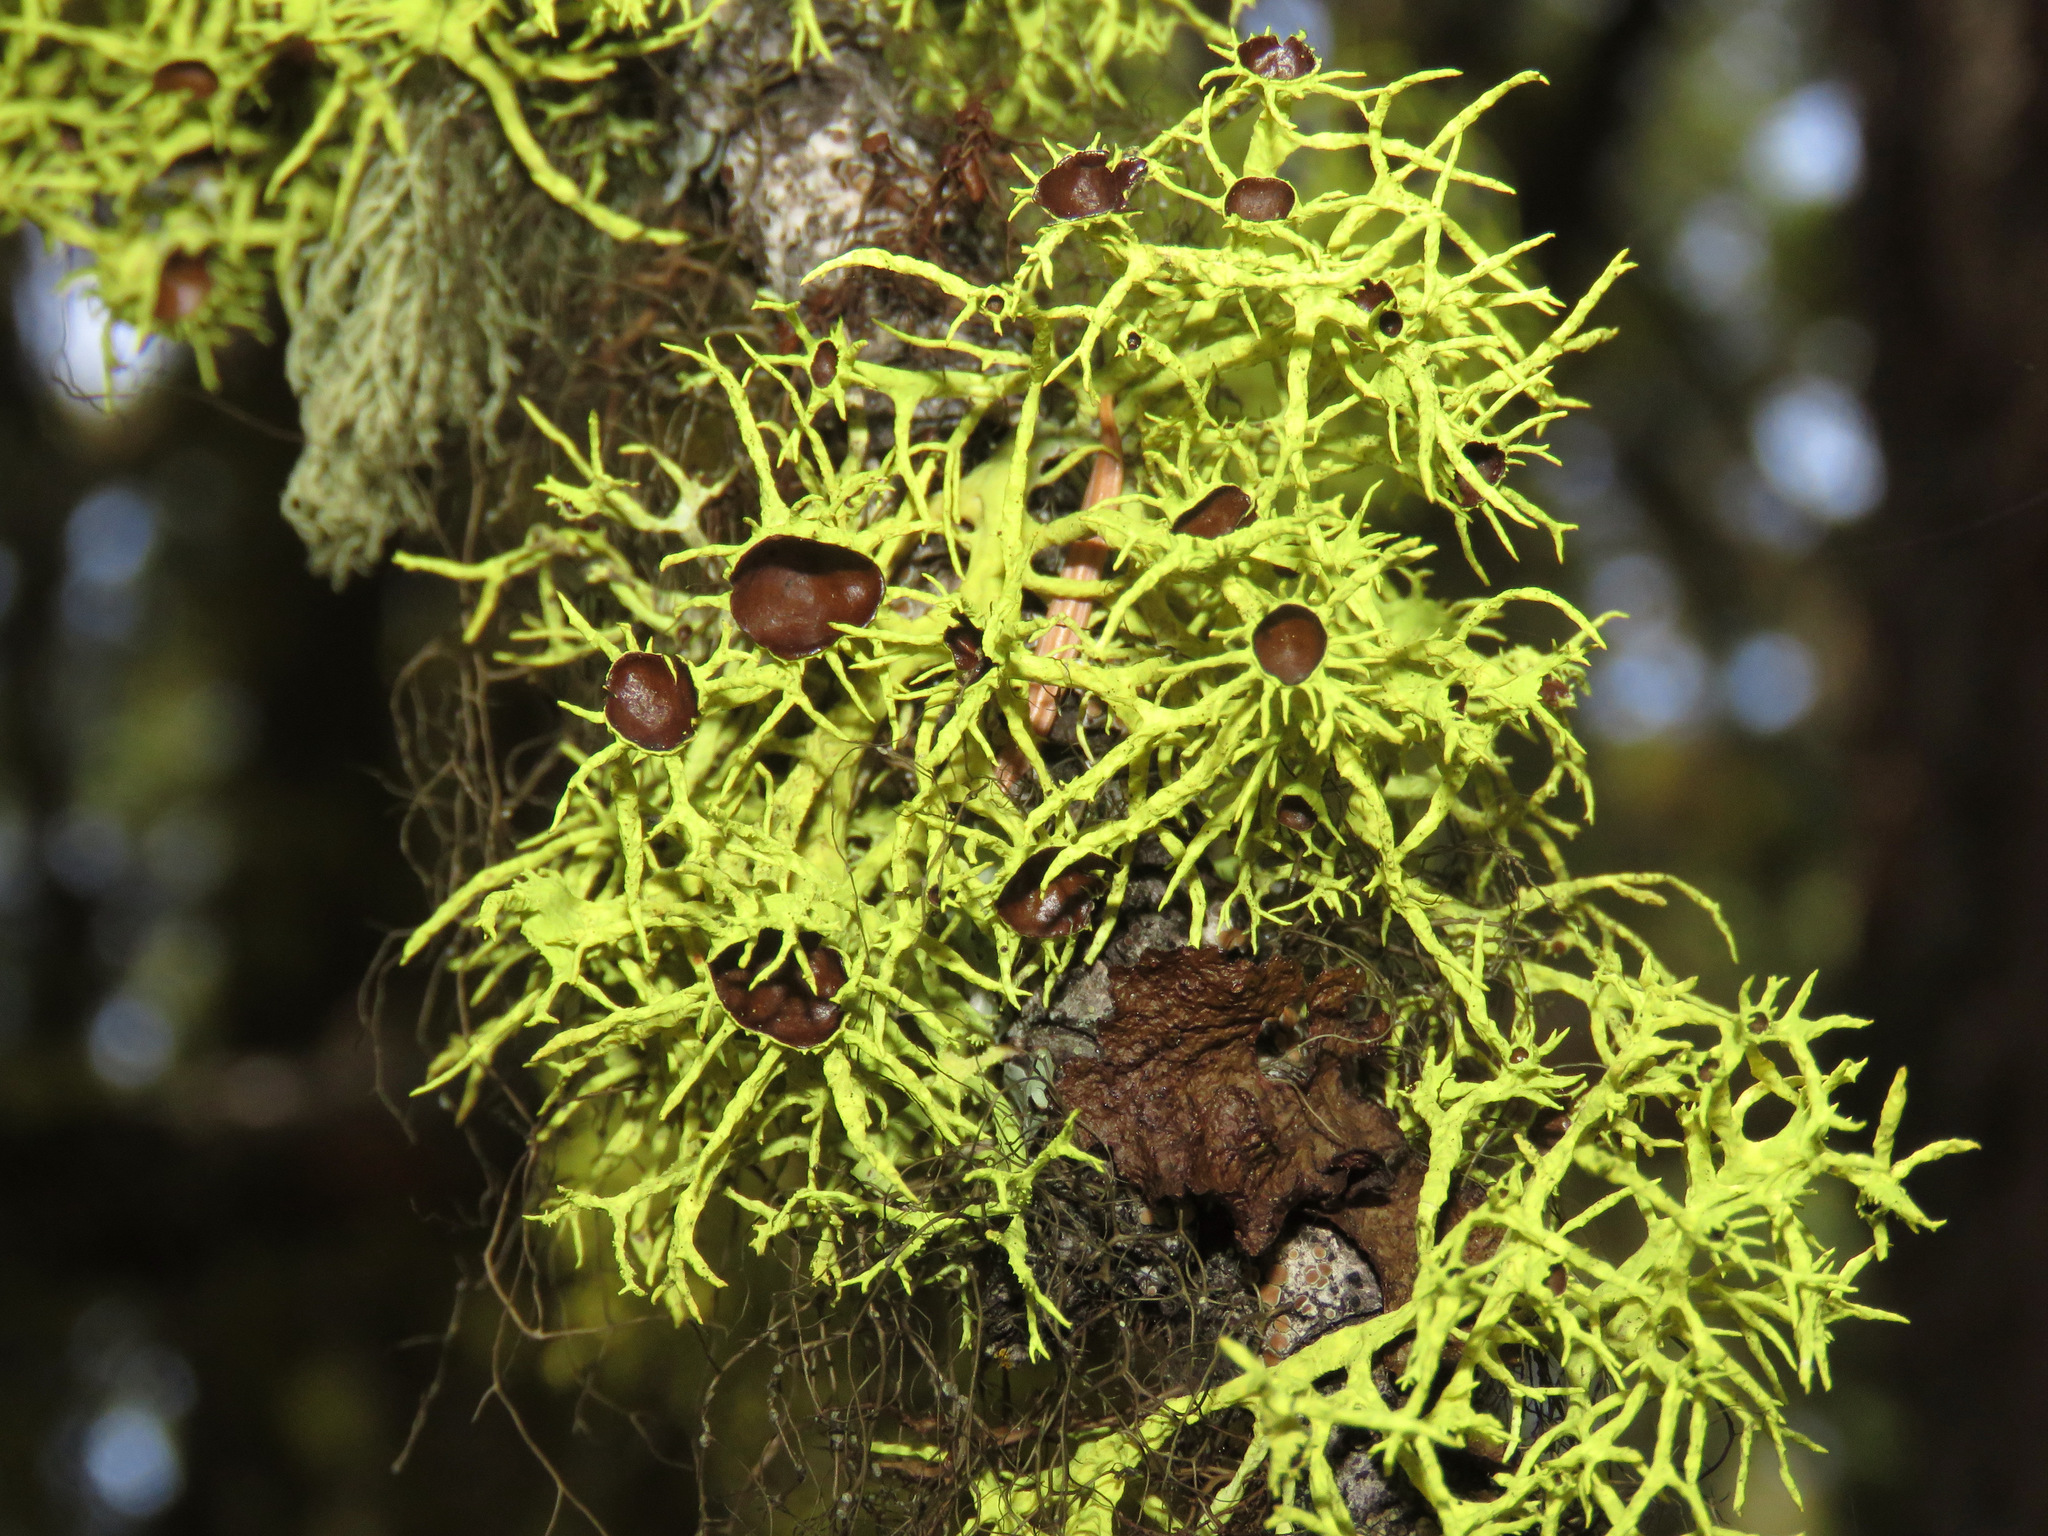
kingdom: Fungi
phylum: Ascomycota
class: Lecanoromycetes
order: Lecanorales
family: Parmeliaceae
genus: Letharia
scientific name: Letharia columbiana
